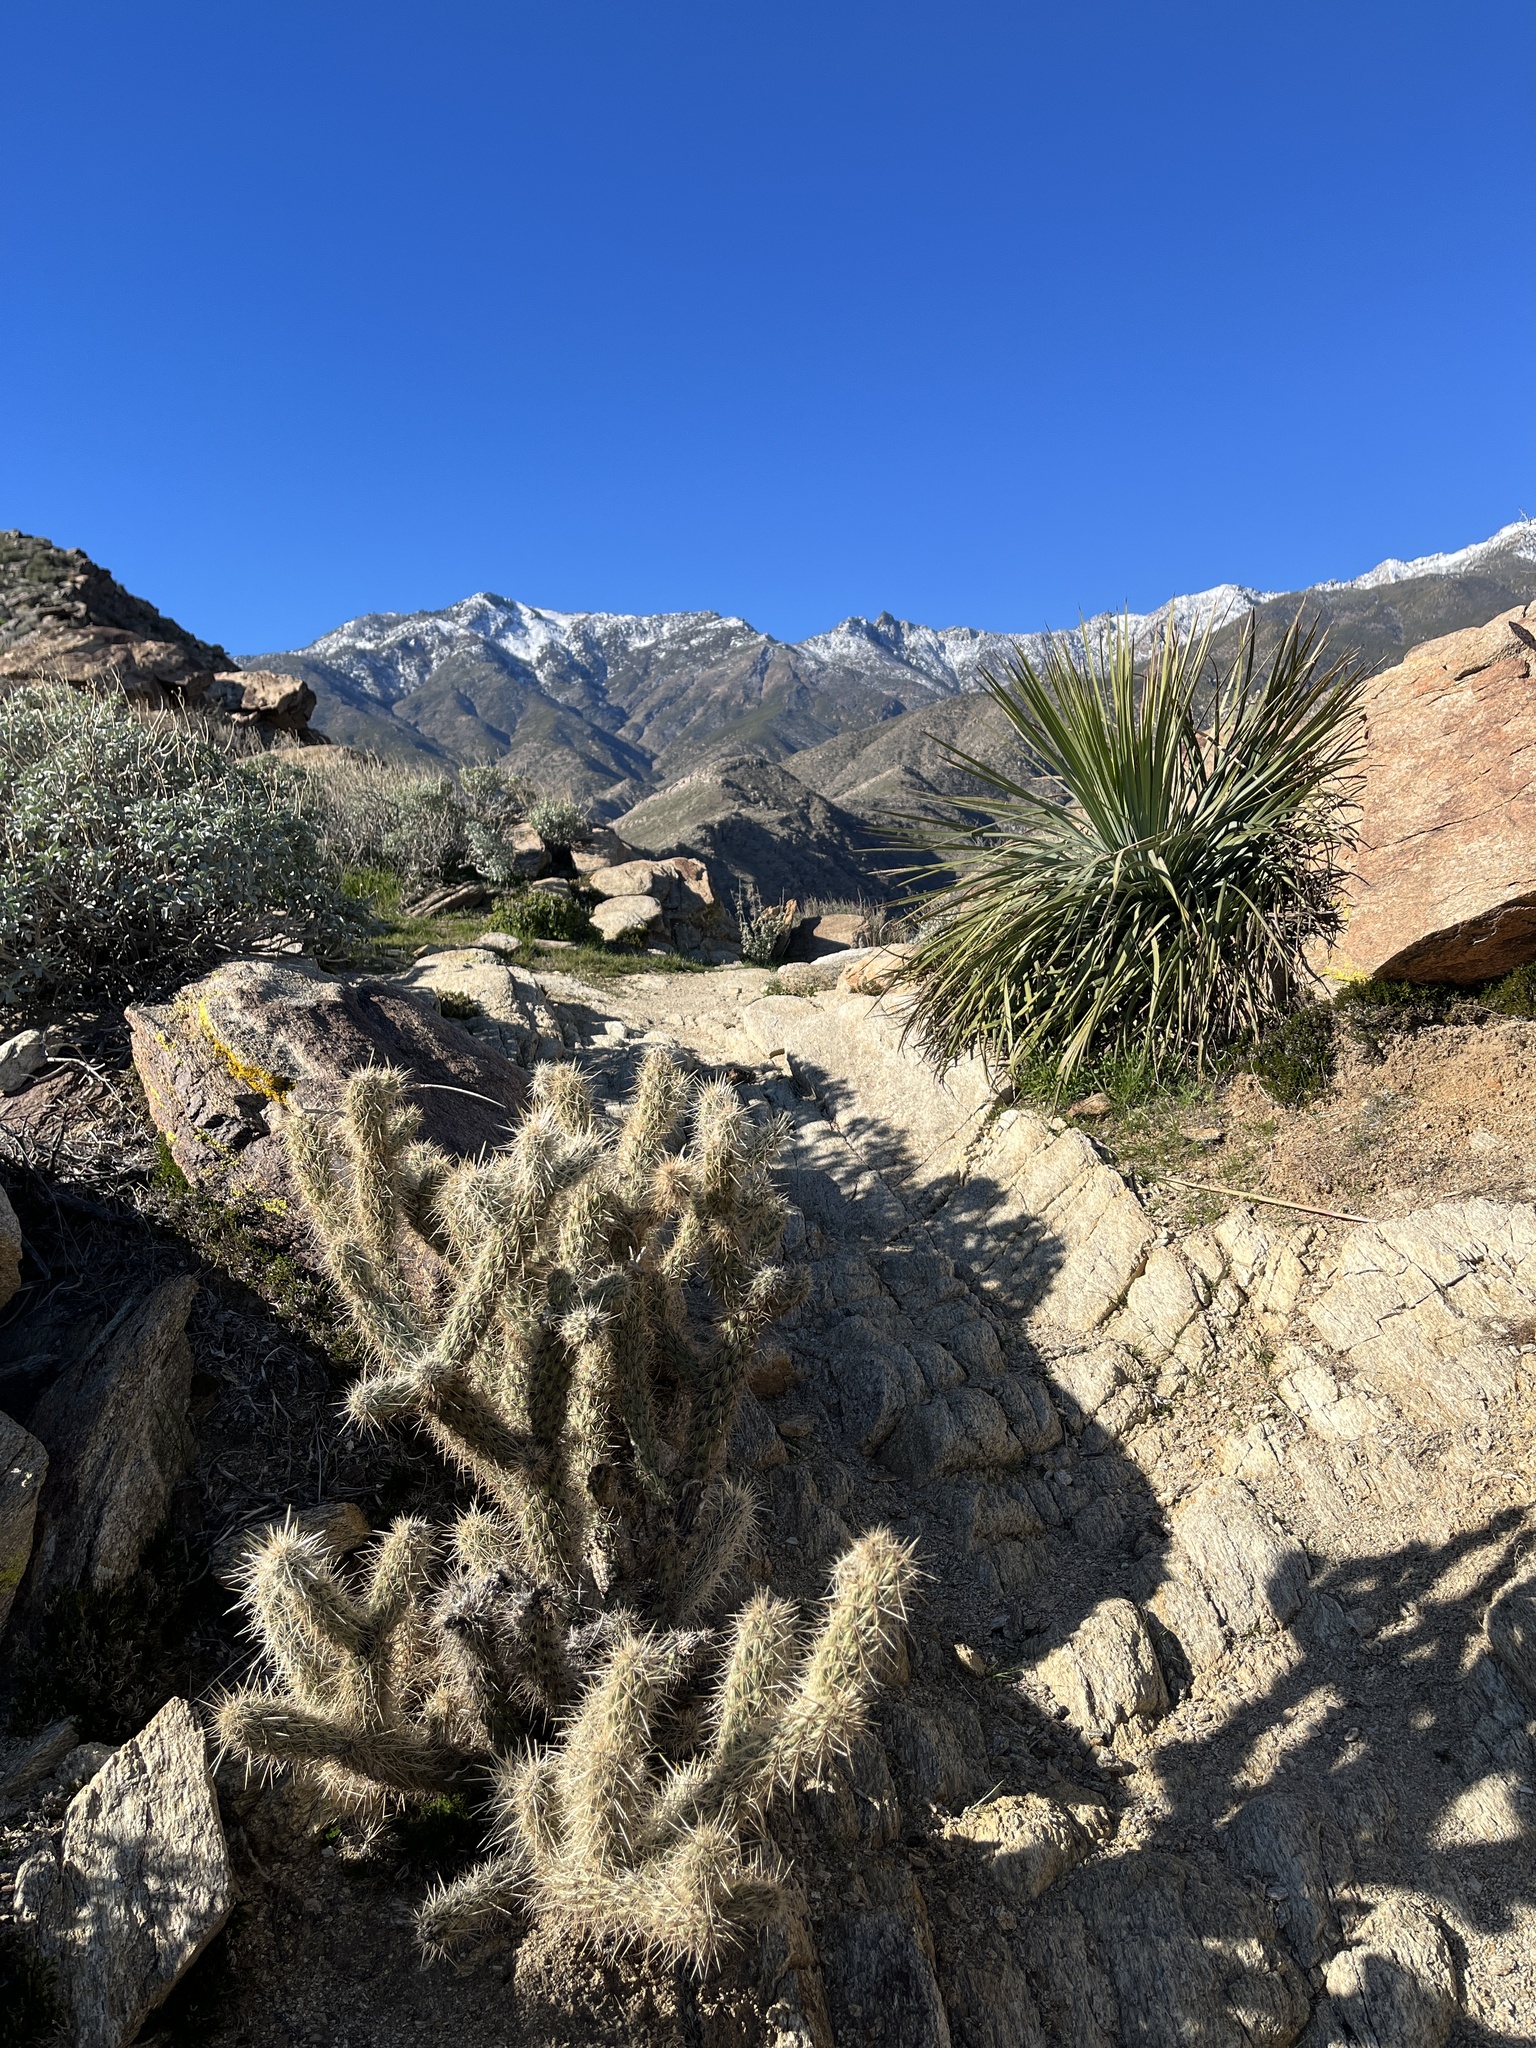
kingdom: Plantae
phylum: Tracheophyta
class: Magnoliopsida
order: Caryophyllales
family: Cactaceae
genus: Cylindropuntia
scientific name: Cylindropuntia ganderi
